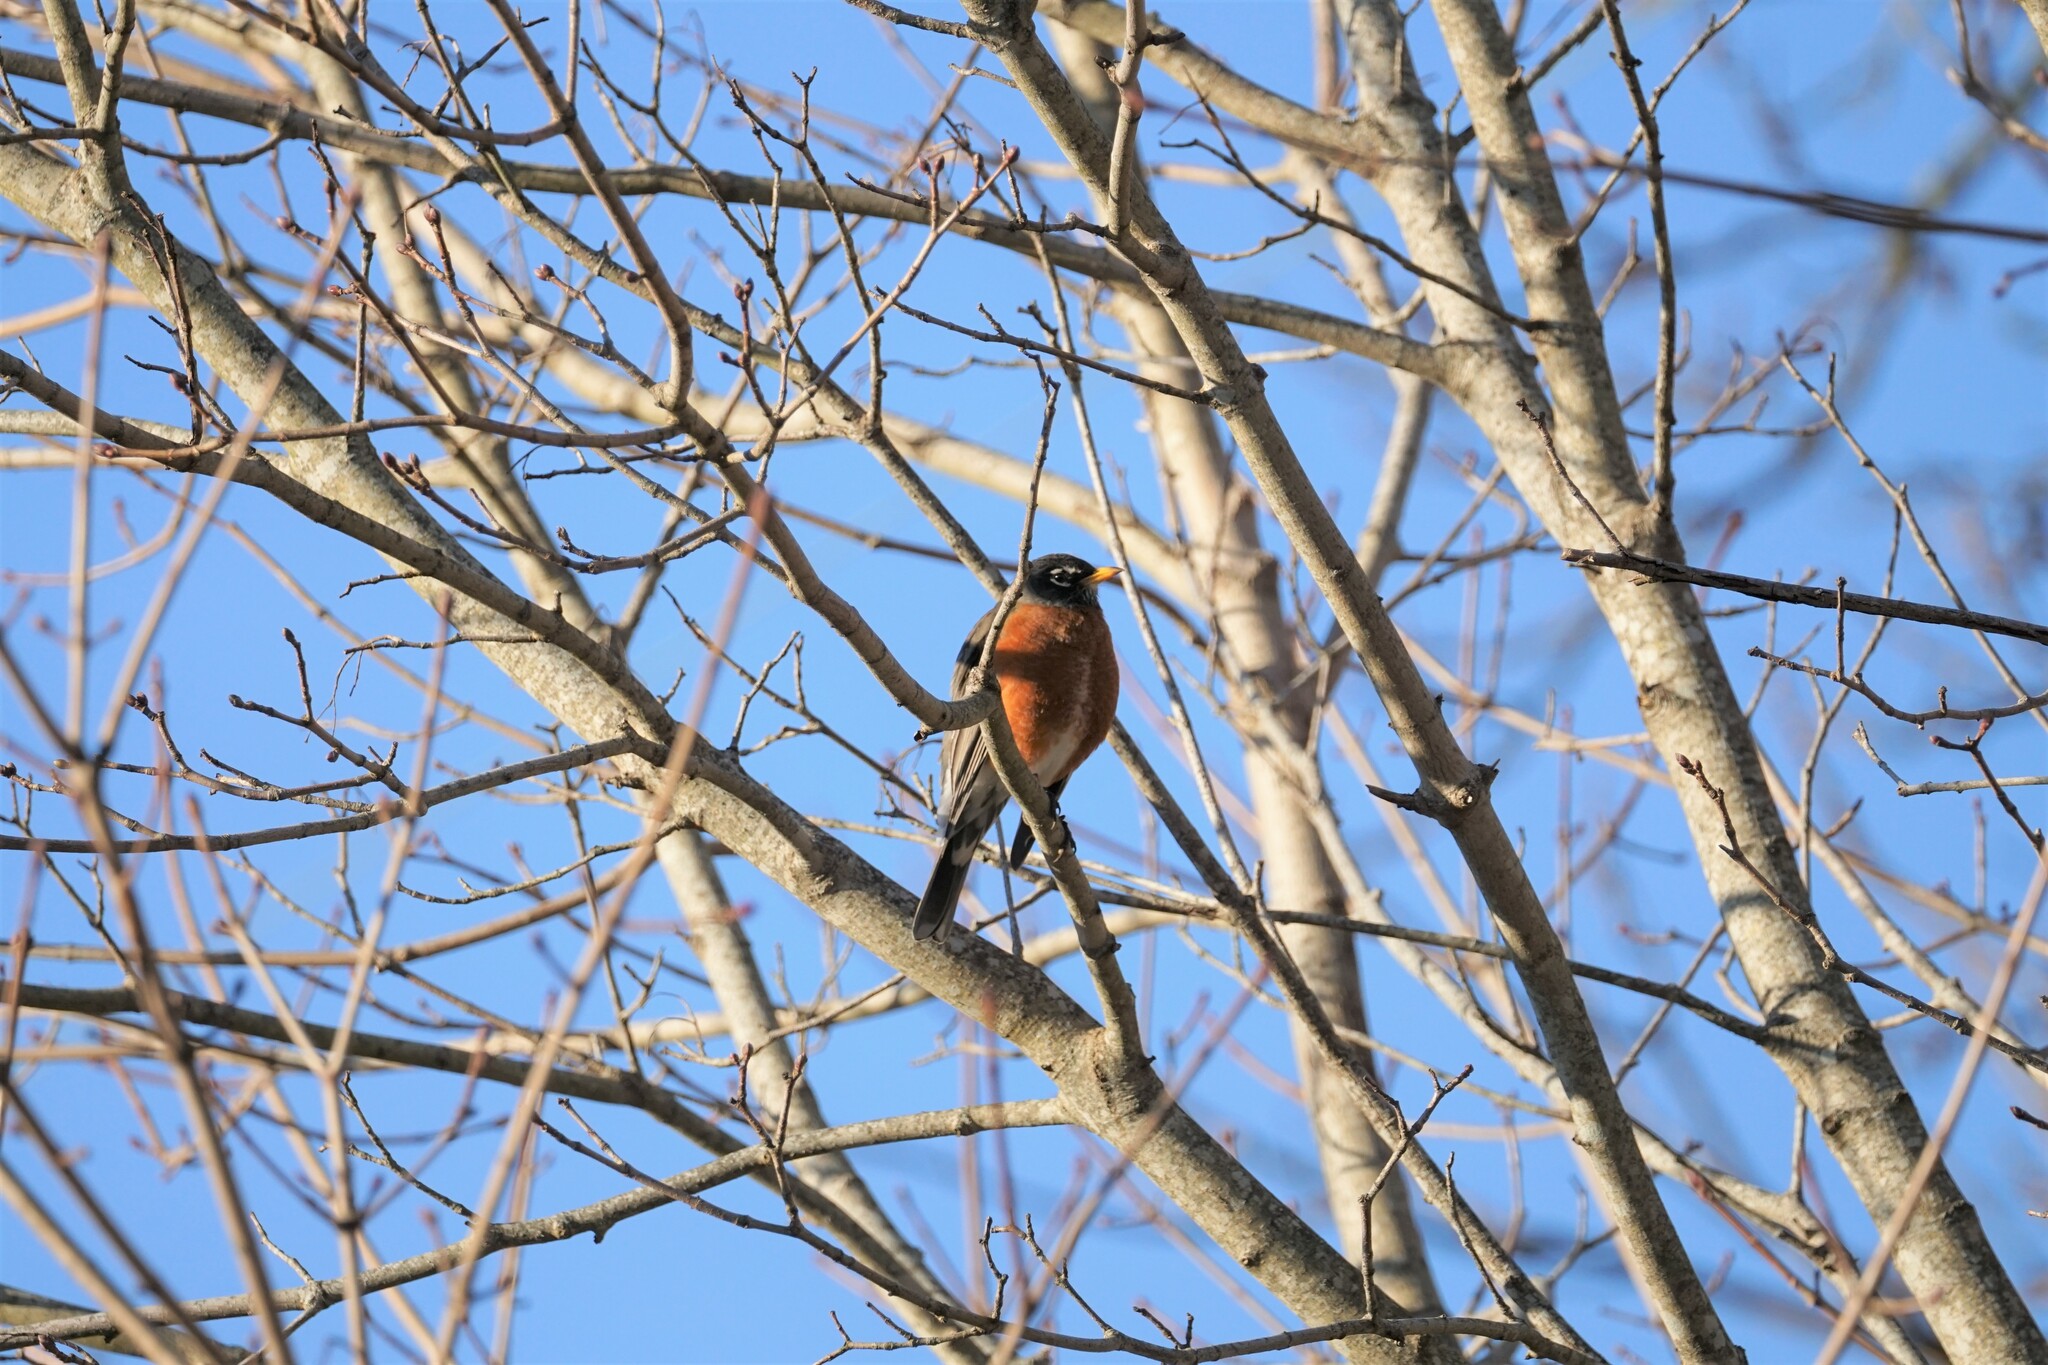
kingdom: Animalia
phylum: Chordata
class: Aves
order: Passeriformes
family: Turdidae
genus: Turdus
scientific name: Turdus migratorius
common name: American robin
